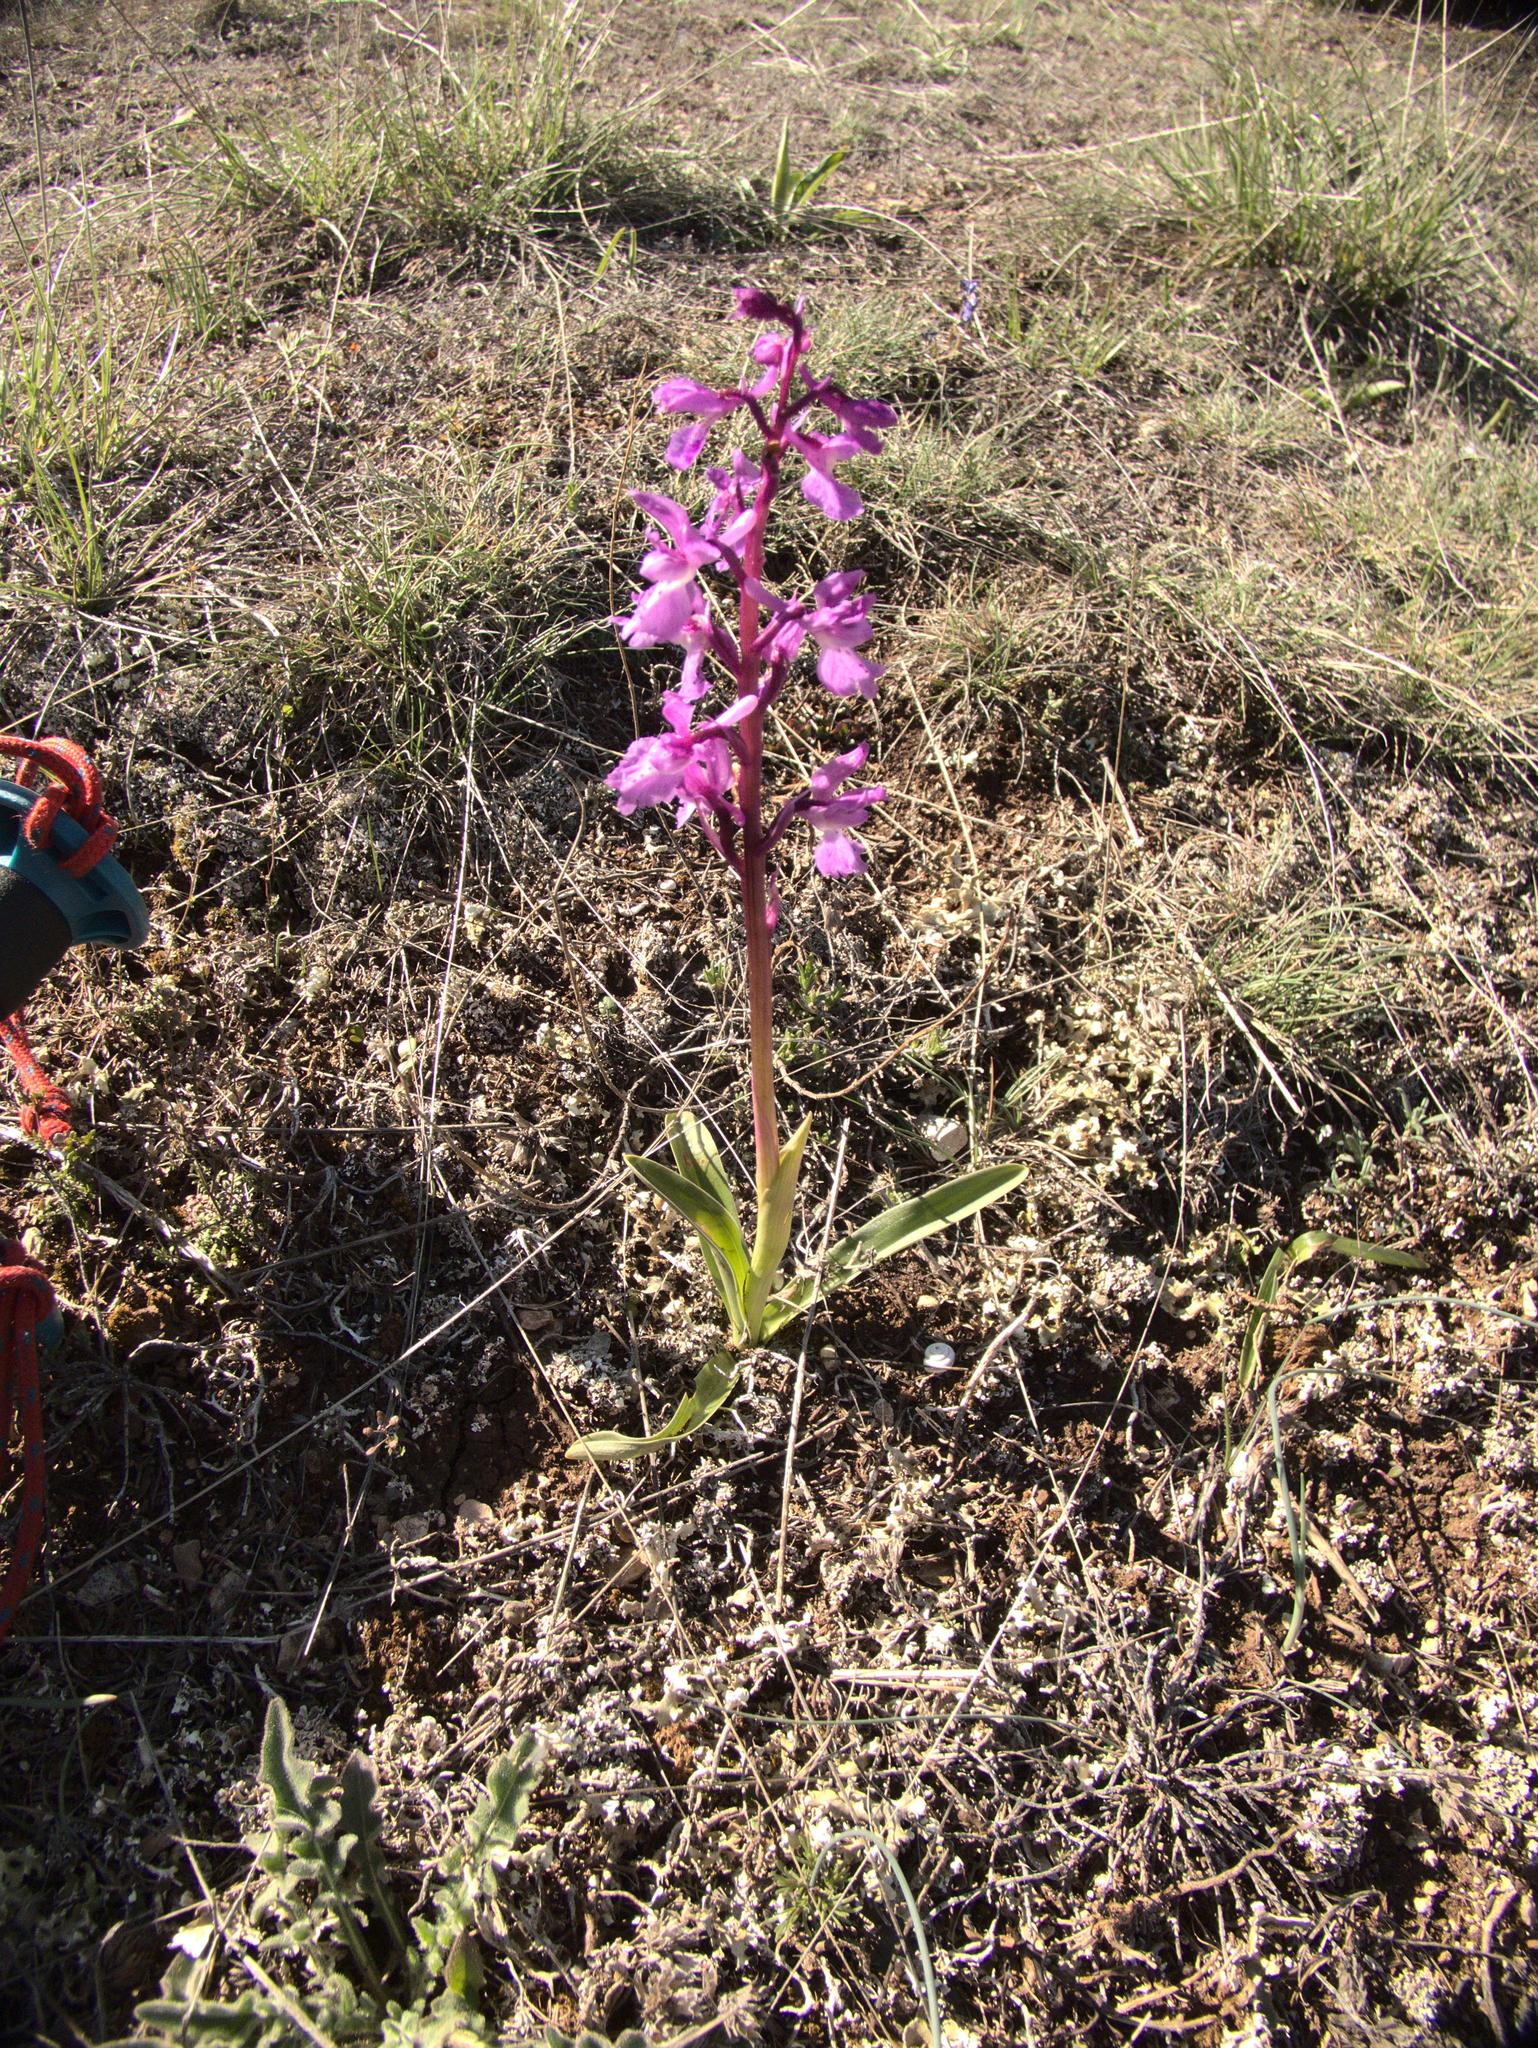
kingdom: Plantae
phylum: Tracheophyta
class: Liliopsida
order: Asparagales
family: Orchidaceae
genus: Orchis
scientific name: Orchis mascula
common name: Early-purple orchid
